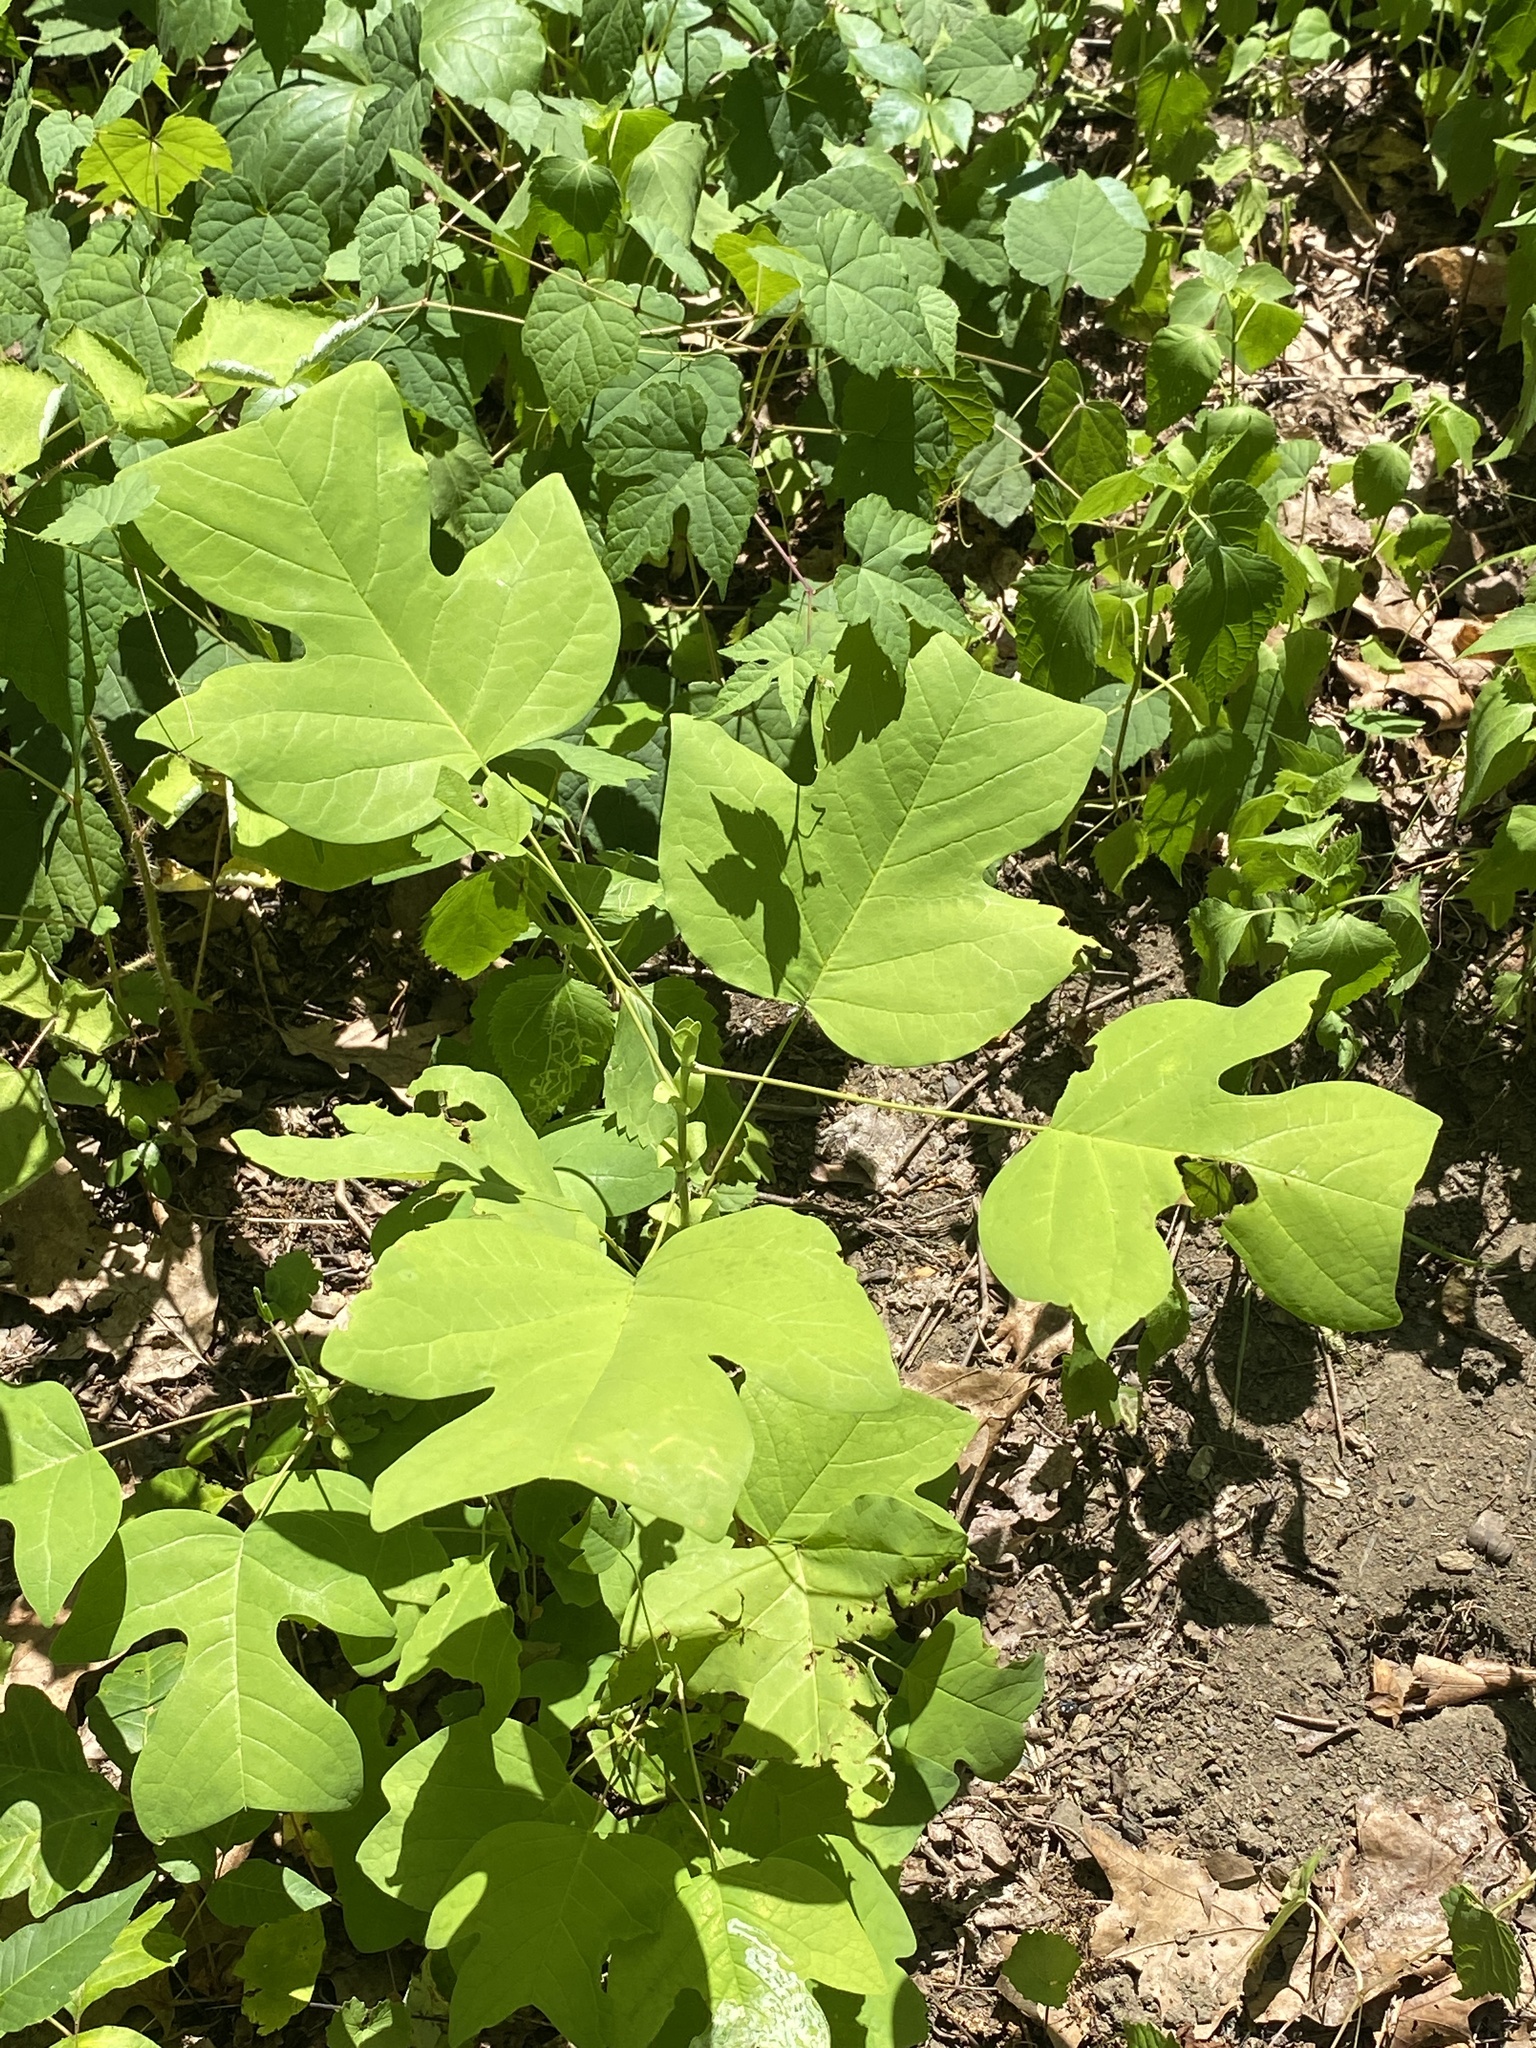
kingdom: Plantae
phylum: Tracheophyta
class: Magnoliopsida
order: Magnoliales
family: Magnoliaceae
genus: Liriodendron
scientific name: Liriodendron tulipifera
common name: Tulip tree
